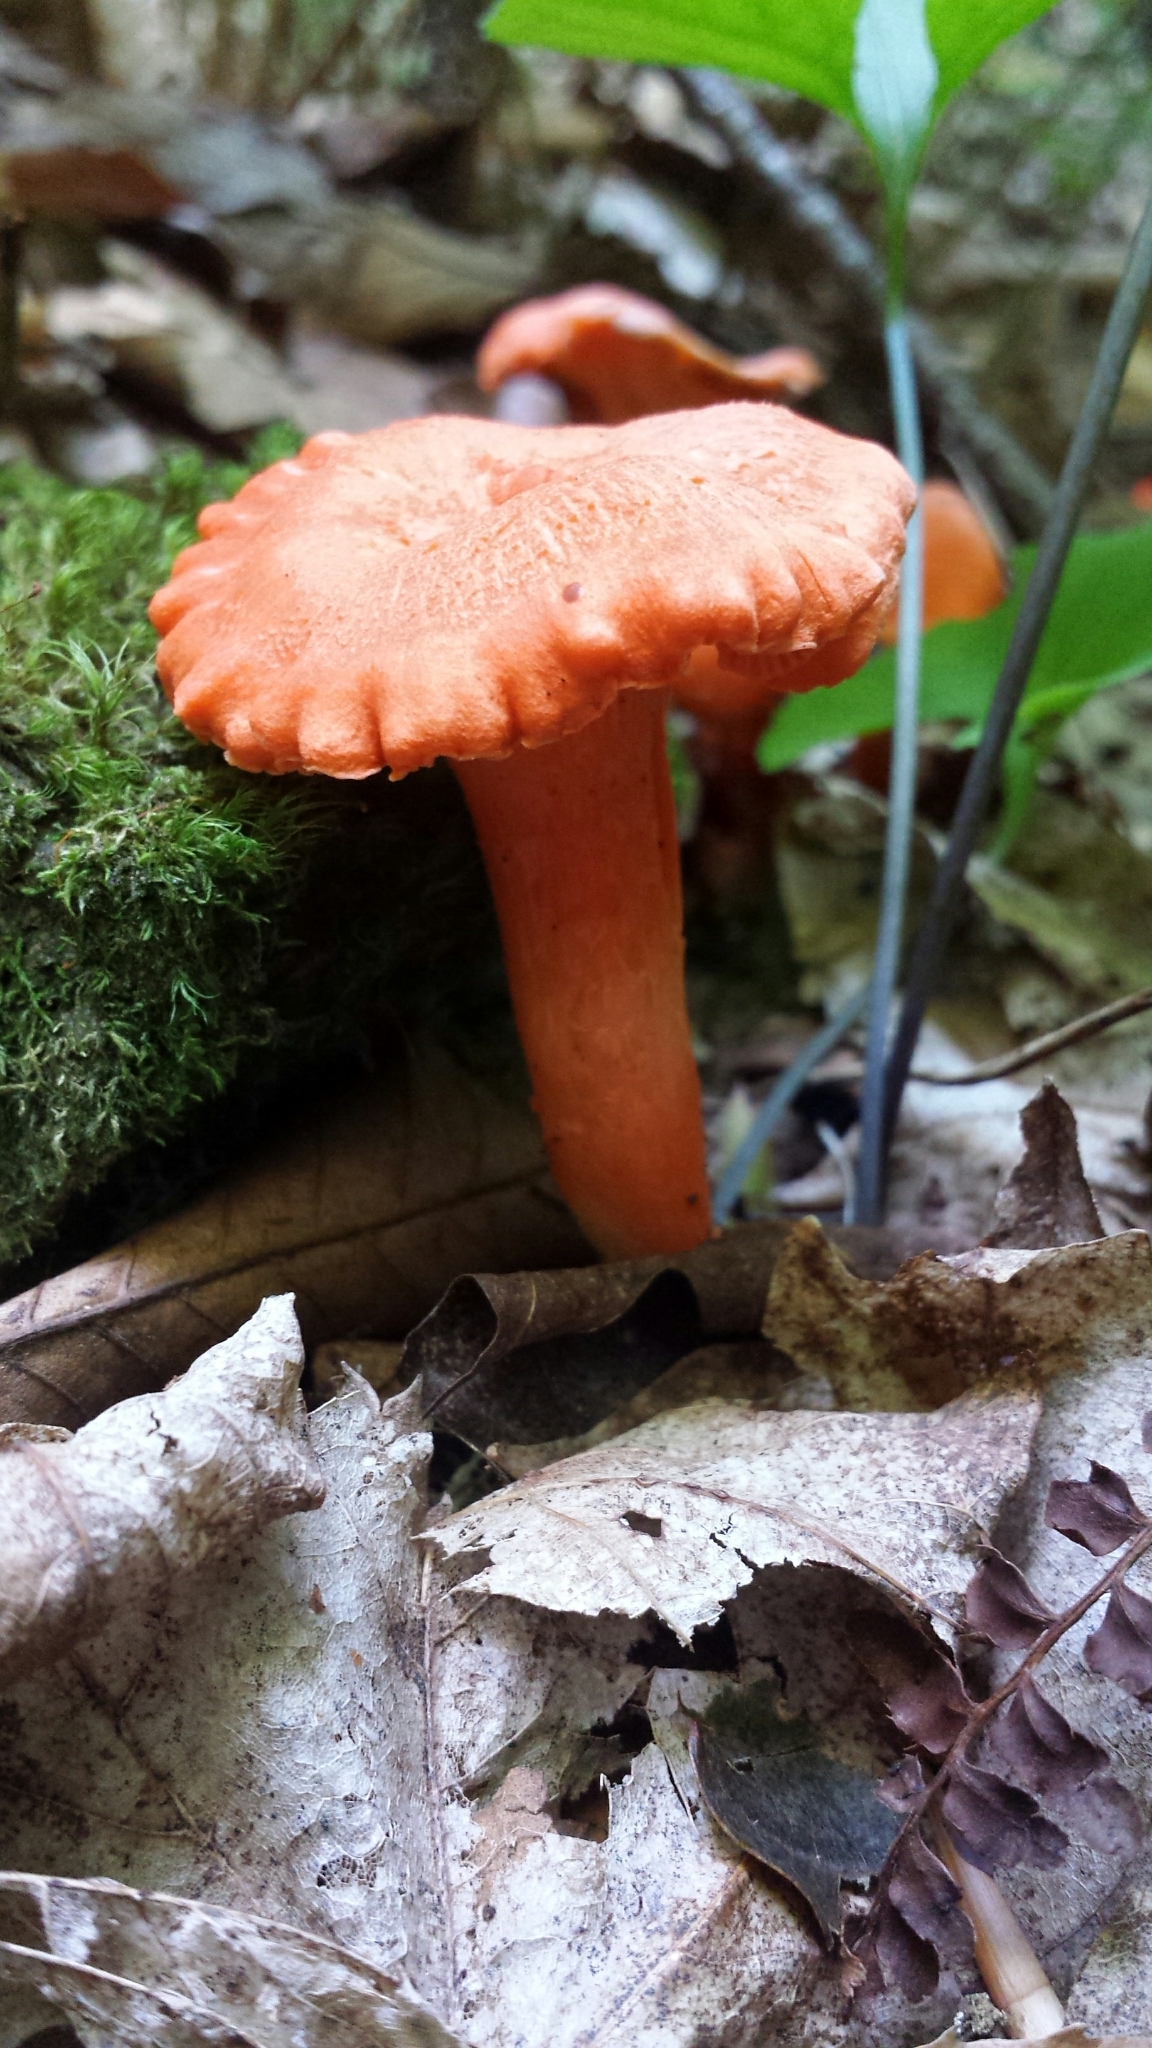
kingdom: Fungi
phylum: Basidiomycota
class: Agaricomycetes
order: Cantharellales
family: Hydnaceae
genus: Cantharellus
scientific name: Cantharellus cinnabarinus
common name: Cinnabar chanterelle
